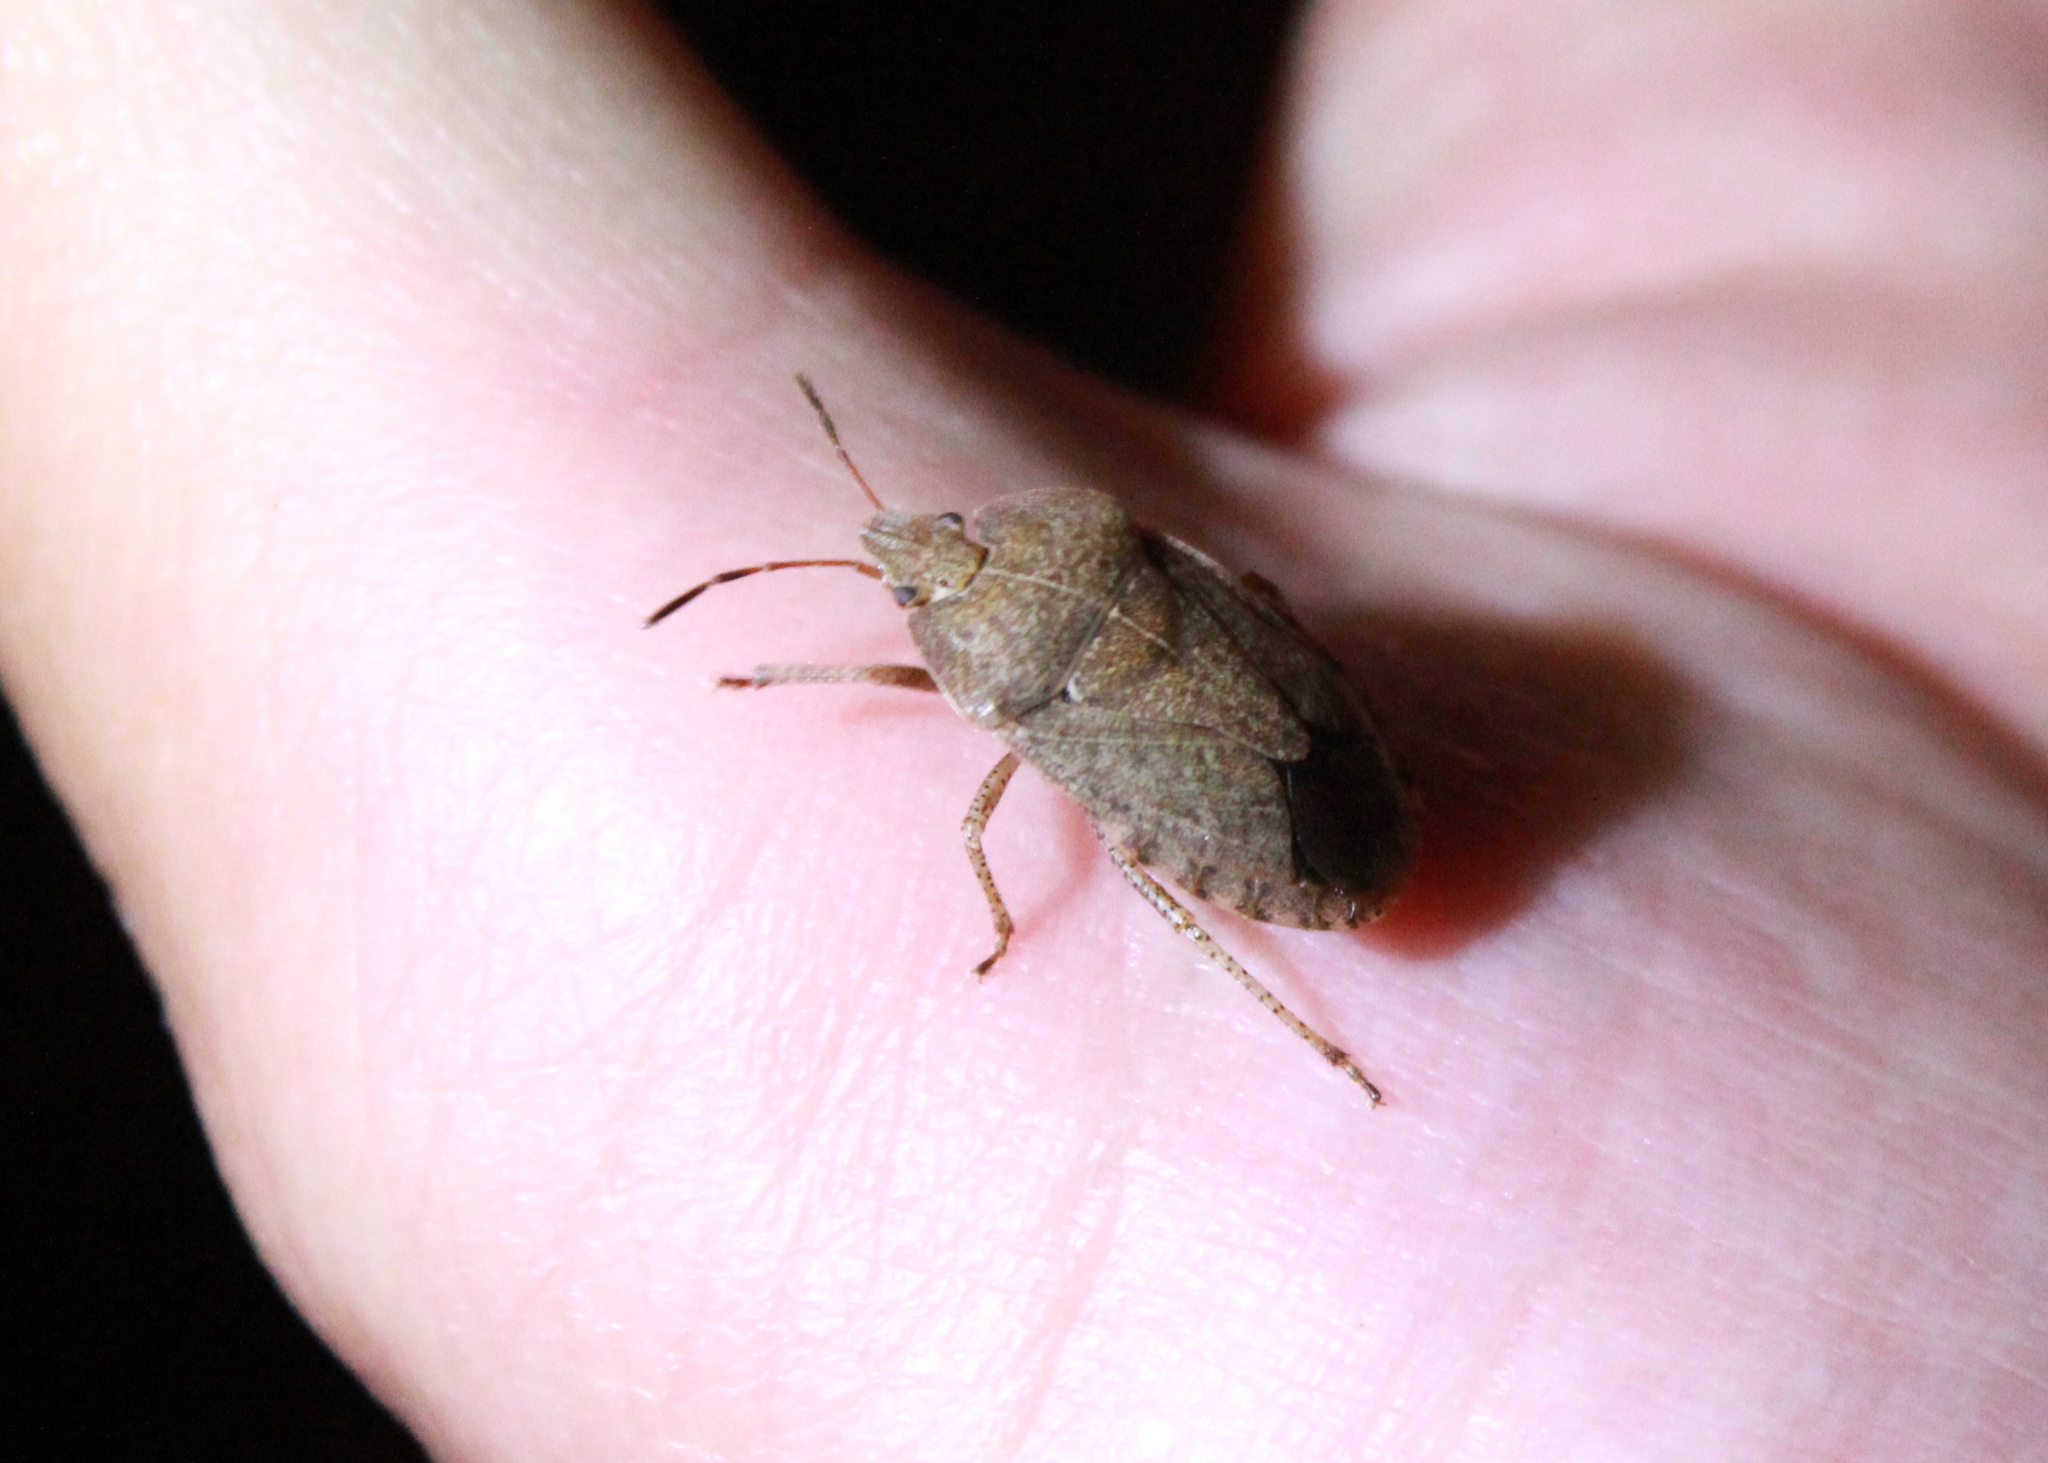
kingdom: Animalia
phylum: Arthropoda
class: Insecta
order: Hemiptera
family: Pentatomidae
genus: Menecles
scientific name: Menecles insertus
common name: Elf shoe stink bug
